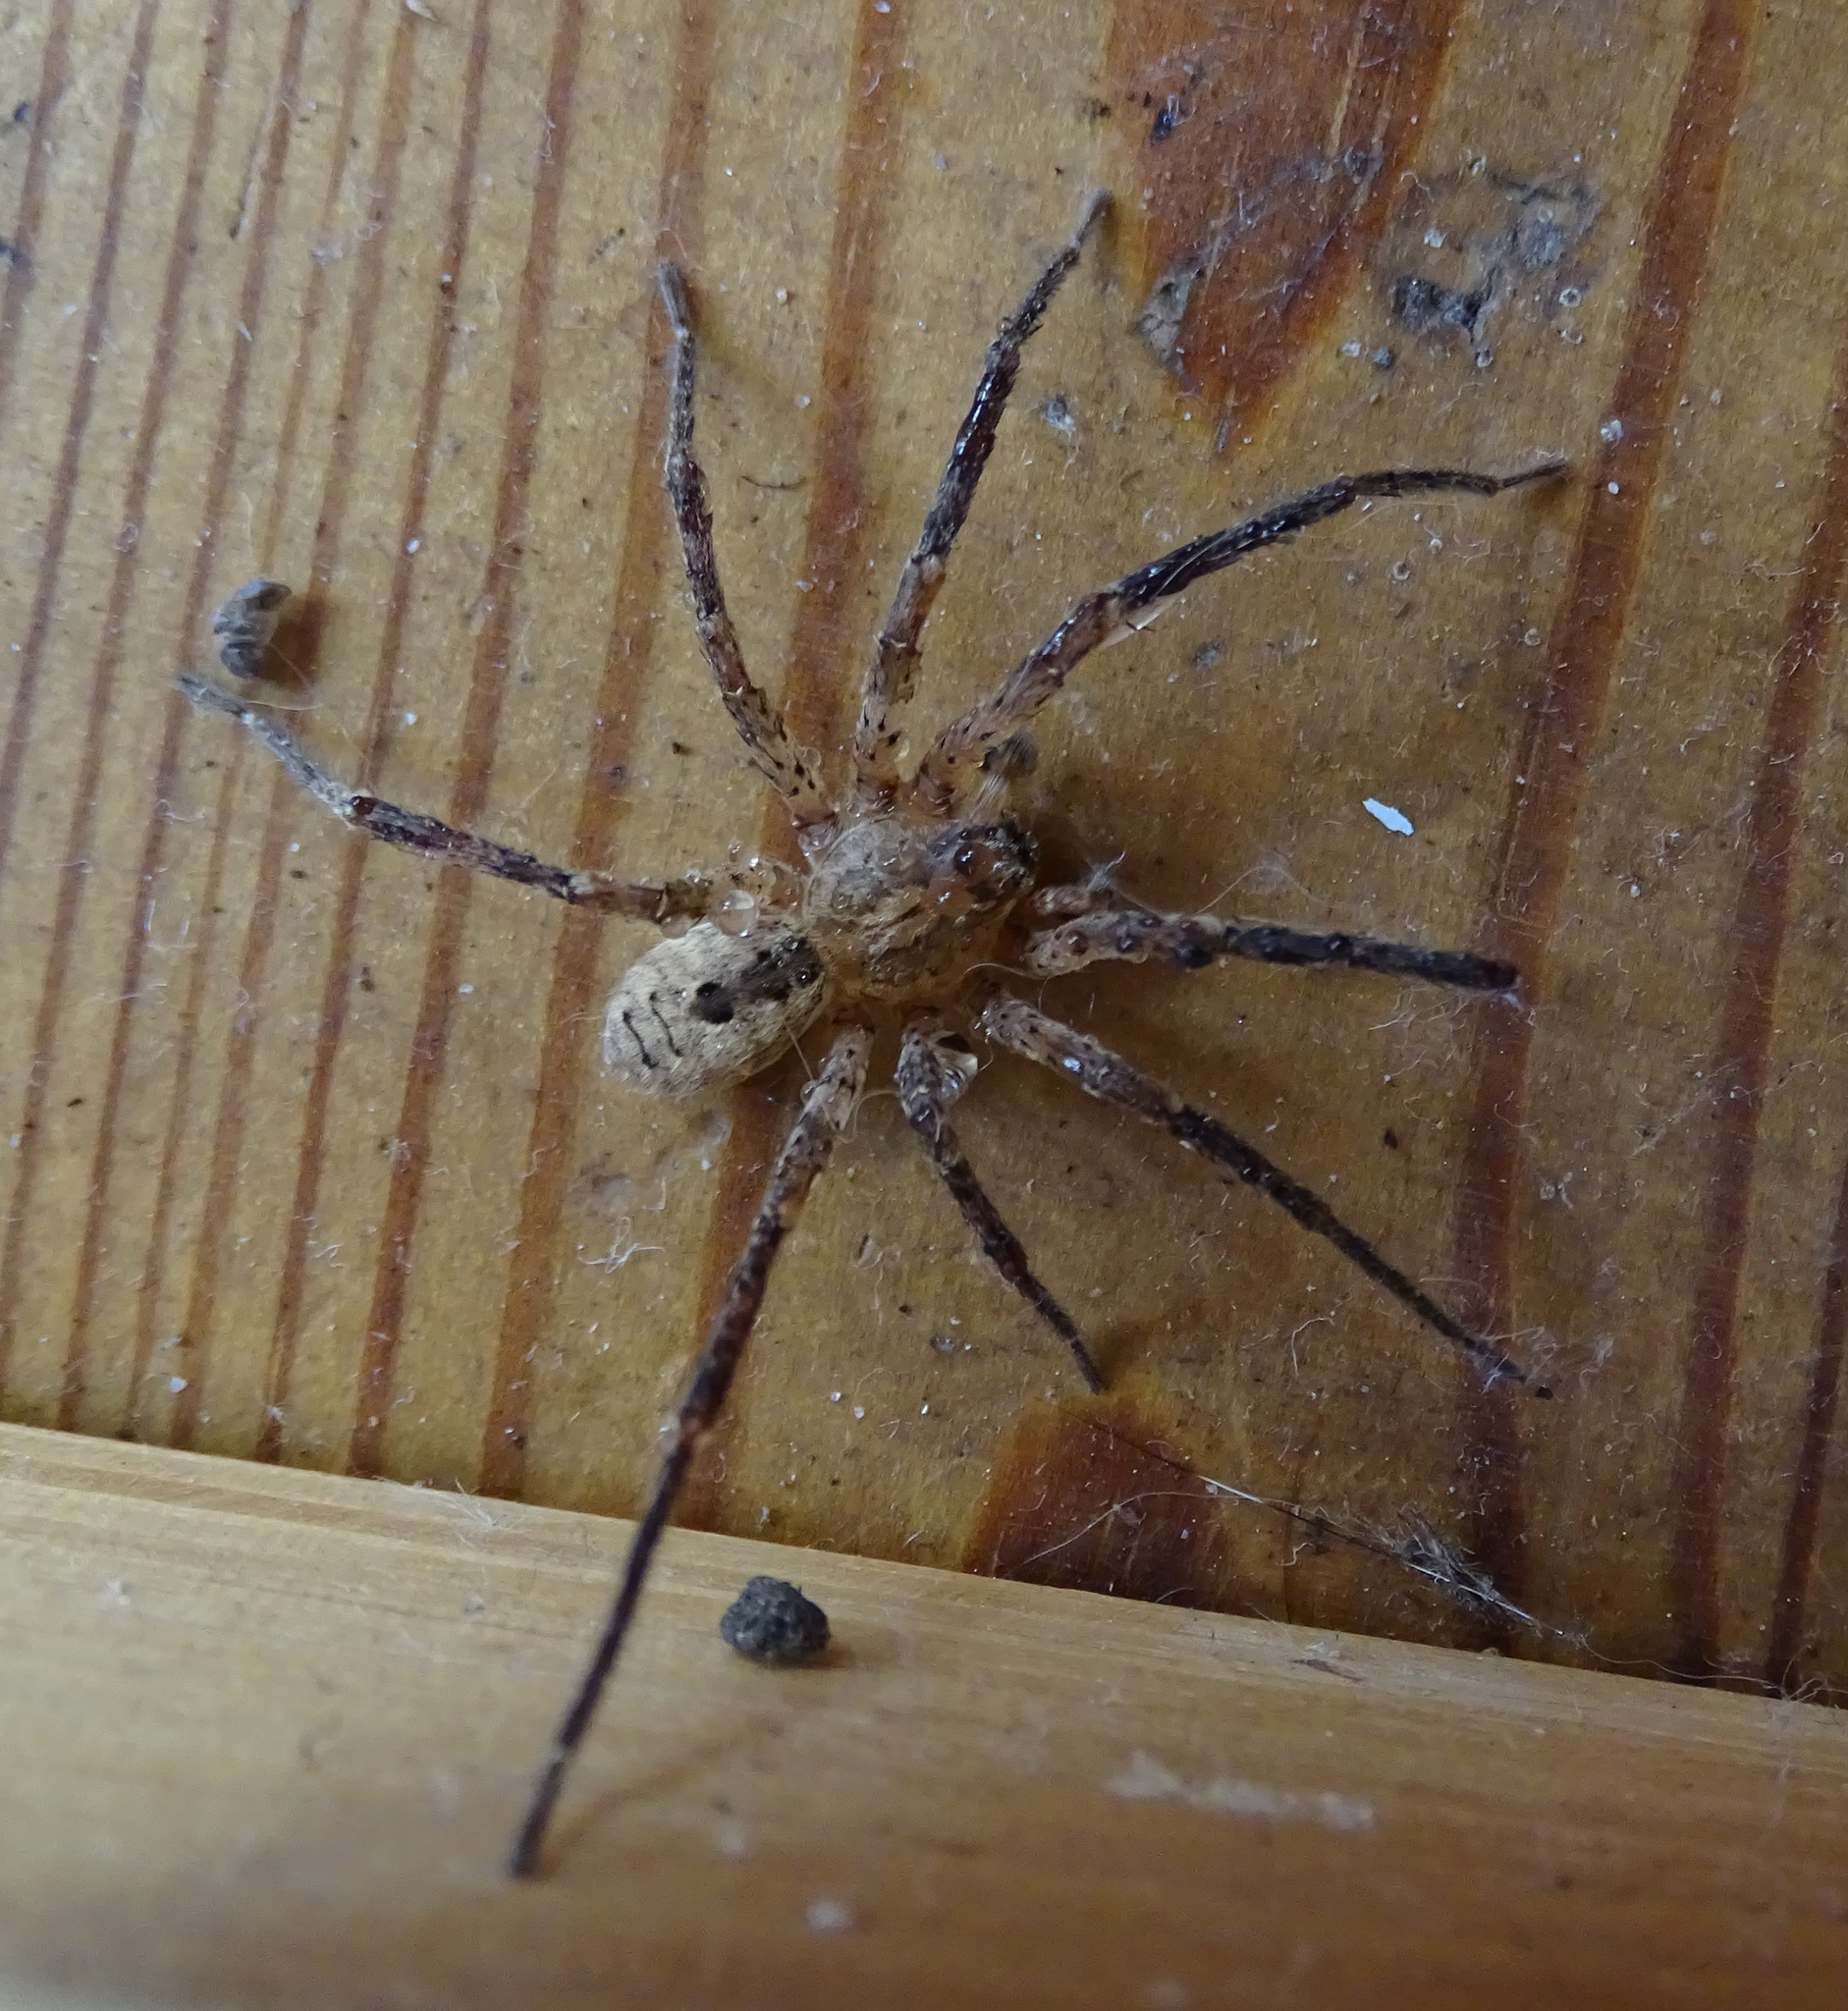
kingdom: Animalia
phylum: Arthropoda
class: Arachnida
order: Araneae
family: Zoropsidae
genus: Zoropsis
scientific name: Zoropsis spinimana
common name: Zoropsid spider
